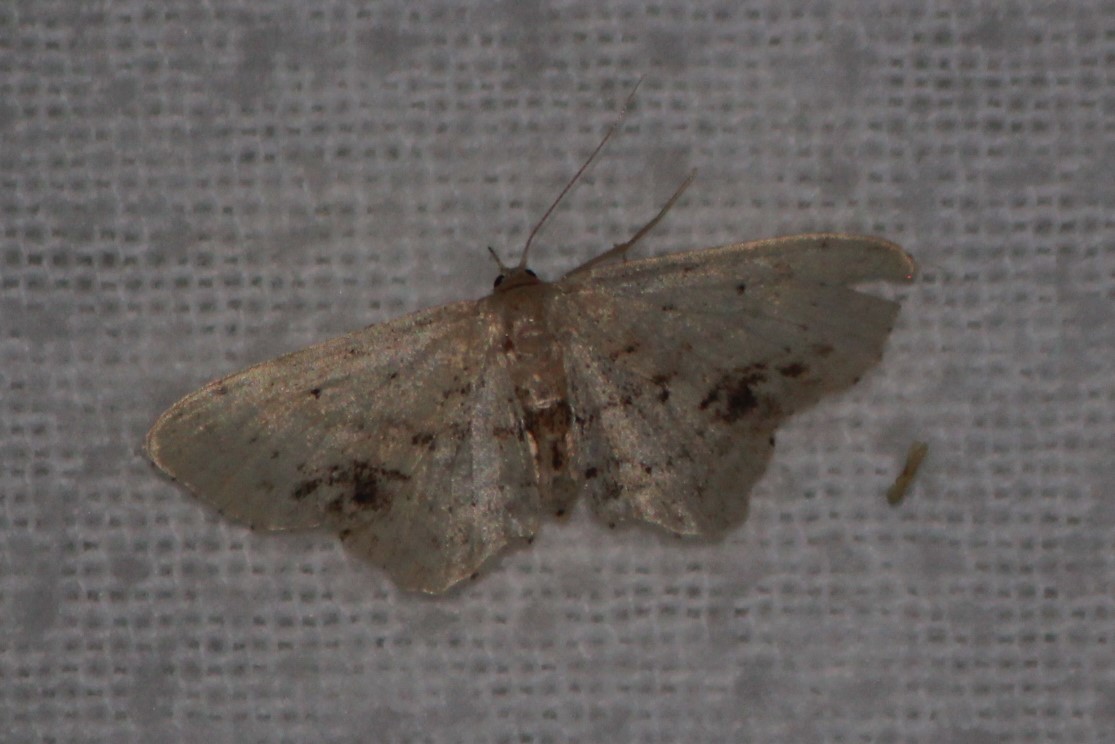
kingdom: Animalia
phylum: Arthropoda
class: Insecta
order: Lepidoptera
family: Geometridae
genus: Idaea
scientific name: Idaea dimidiata
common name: Single-dotted wave
